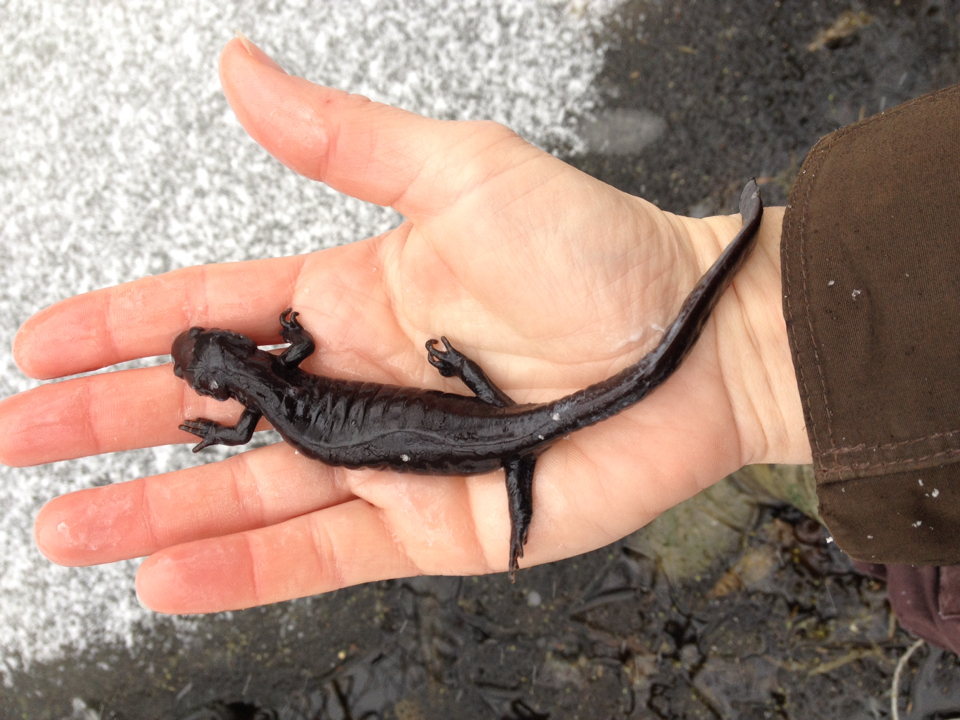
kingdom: Animalia
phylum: Chordata
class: Amphibia
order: Caudata
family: Ambystomatidae
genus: Ambystoma
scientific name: Ambystoma jeffersonianum
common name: Jefferson salamander
